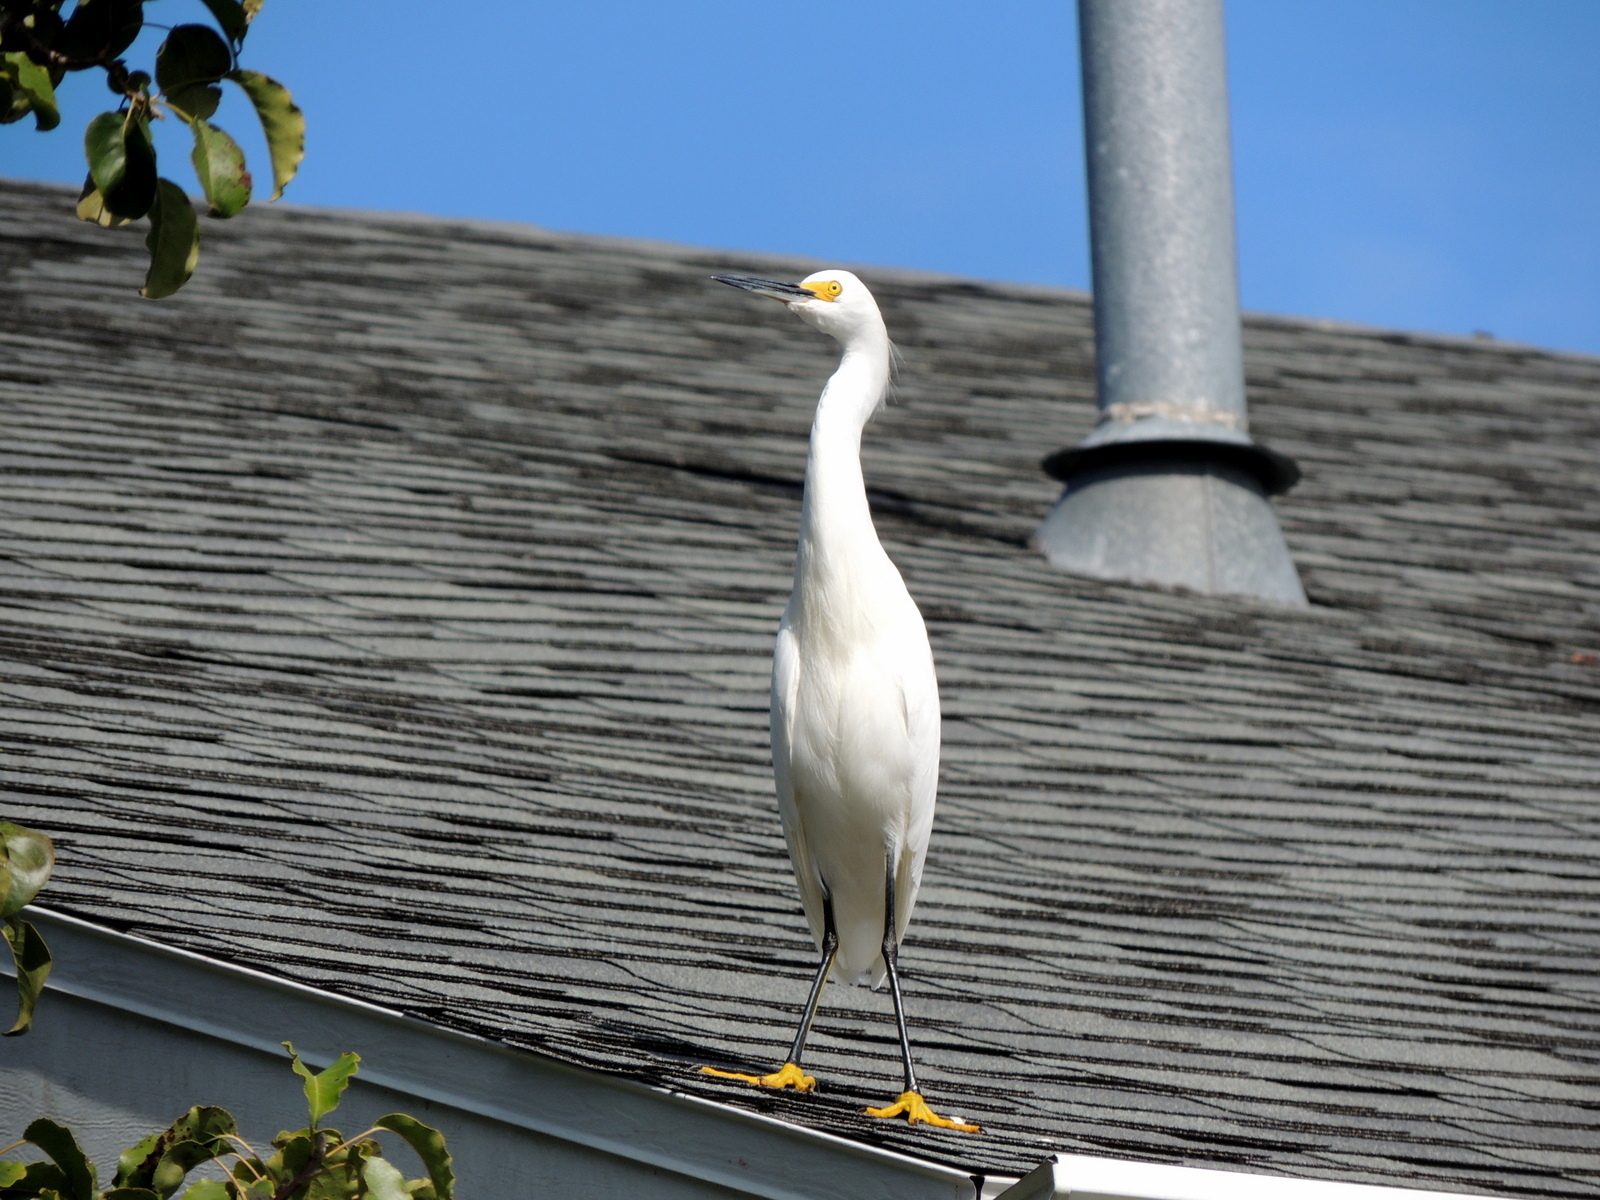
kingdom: Animalia
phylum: Chordata
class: Aves
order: Pelecaniformes
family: Ardeidae
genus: Egretta
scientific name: Egretta thula
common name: Snowy egret
